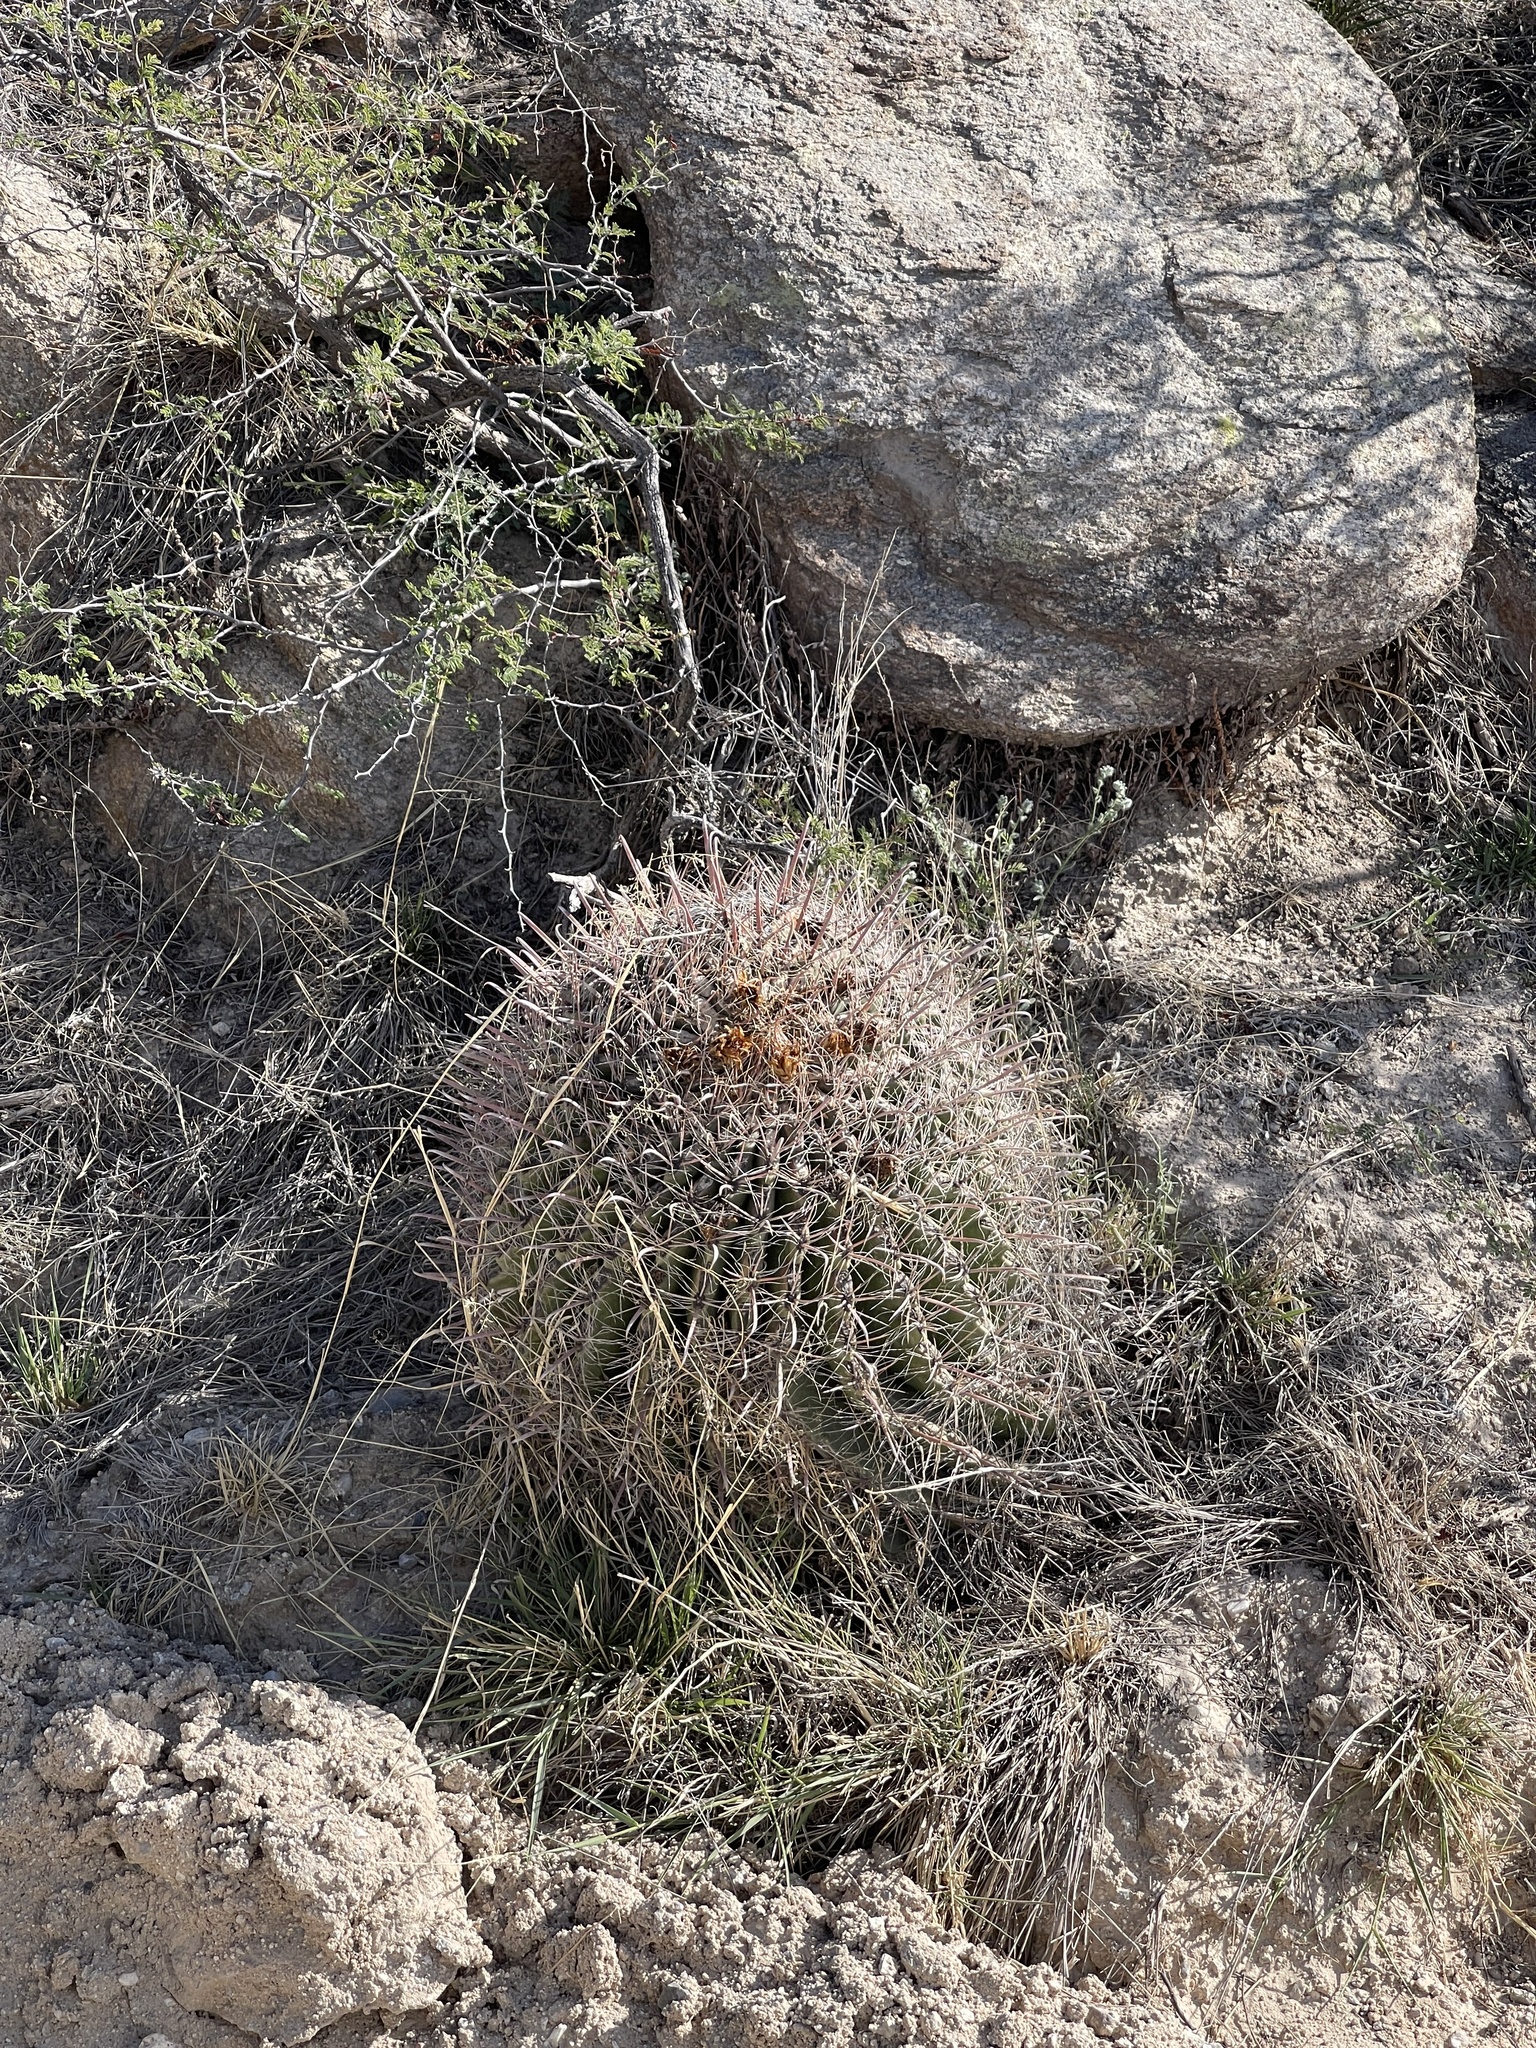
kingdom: Plantae
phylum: Tracheophyta
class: Magnoliopsida
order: Caryophyllales
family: Cactaceae
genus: Ferocactus
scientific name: Ferocactus wislizeni
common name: Candy barrel cactus
